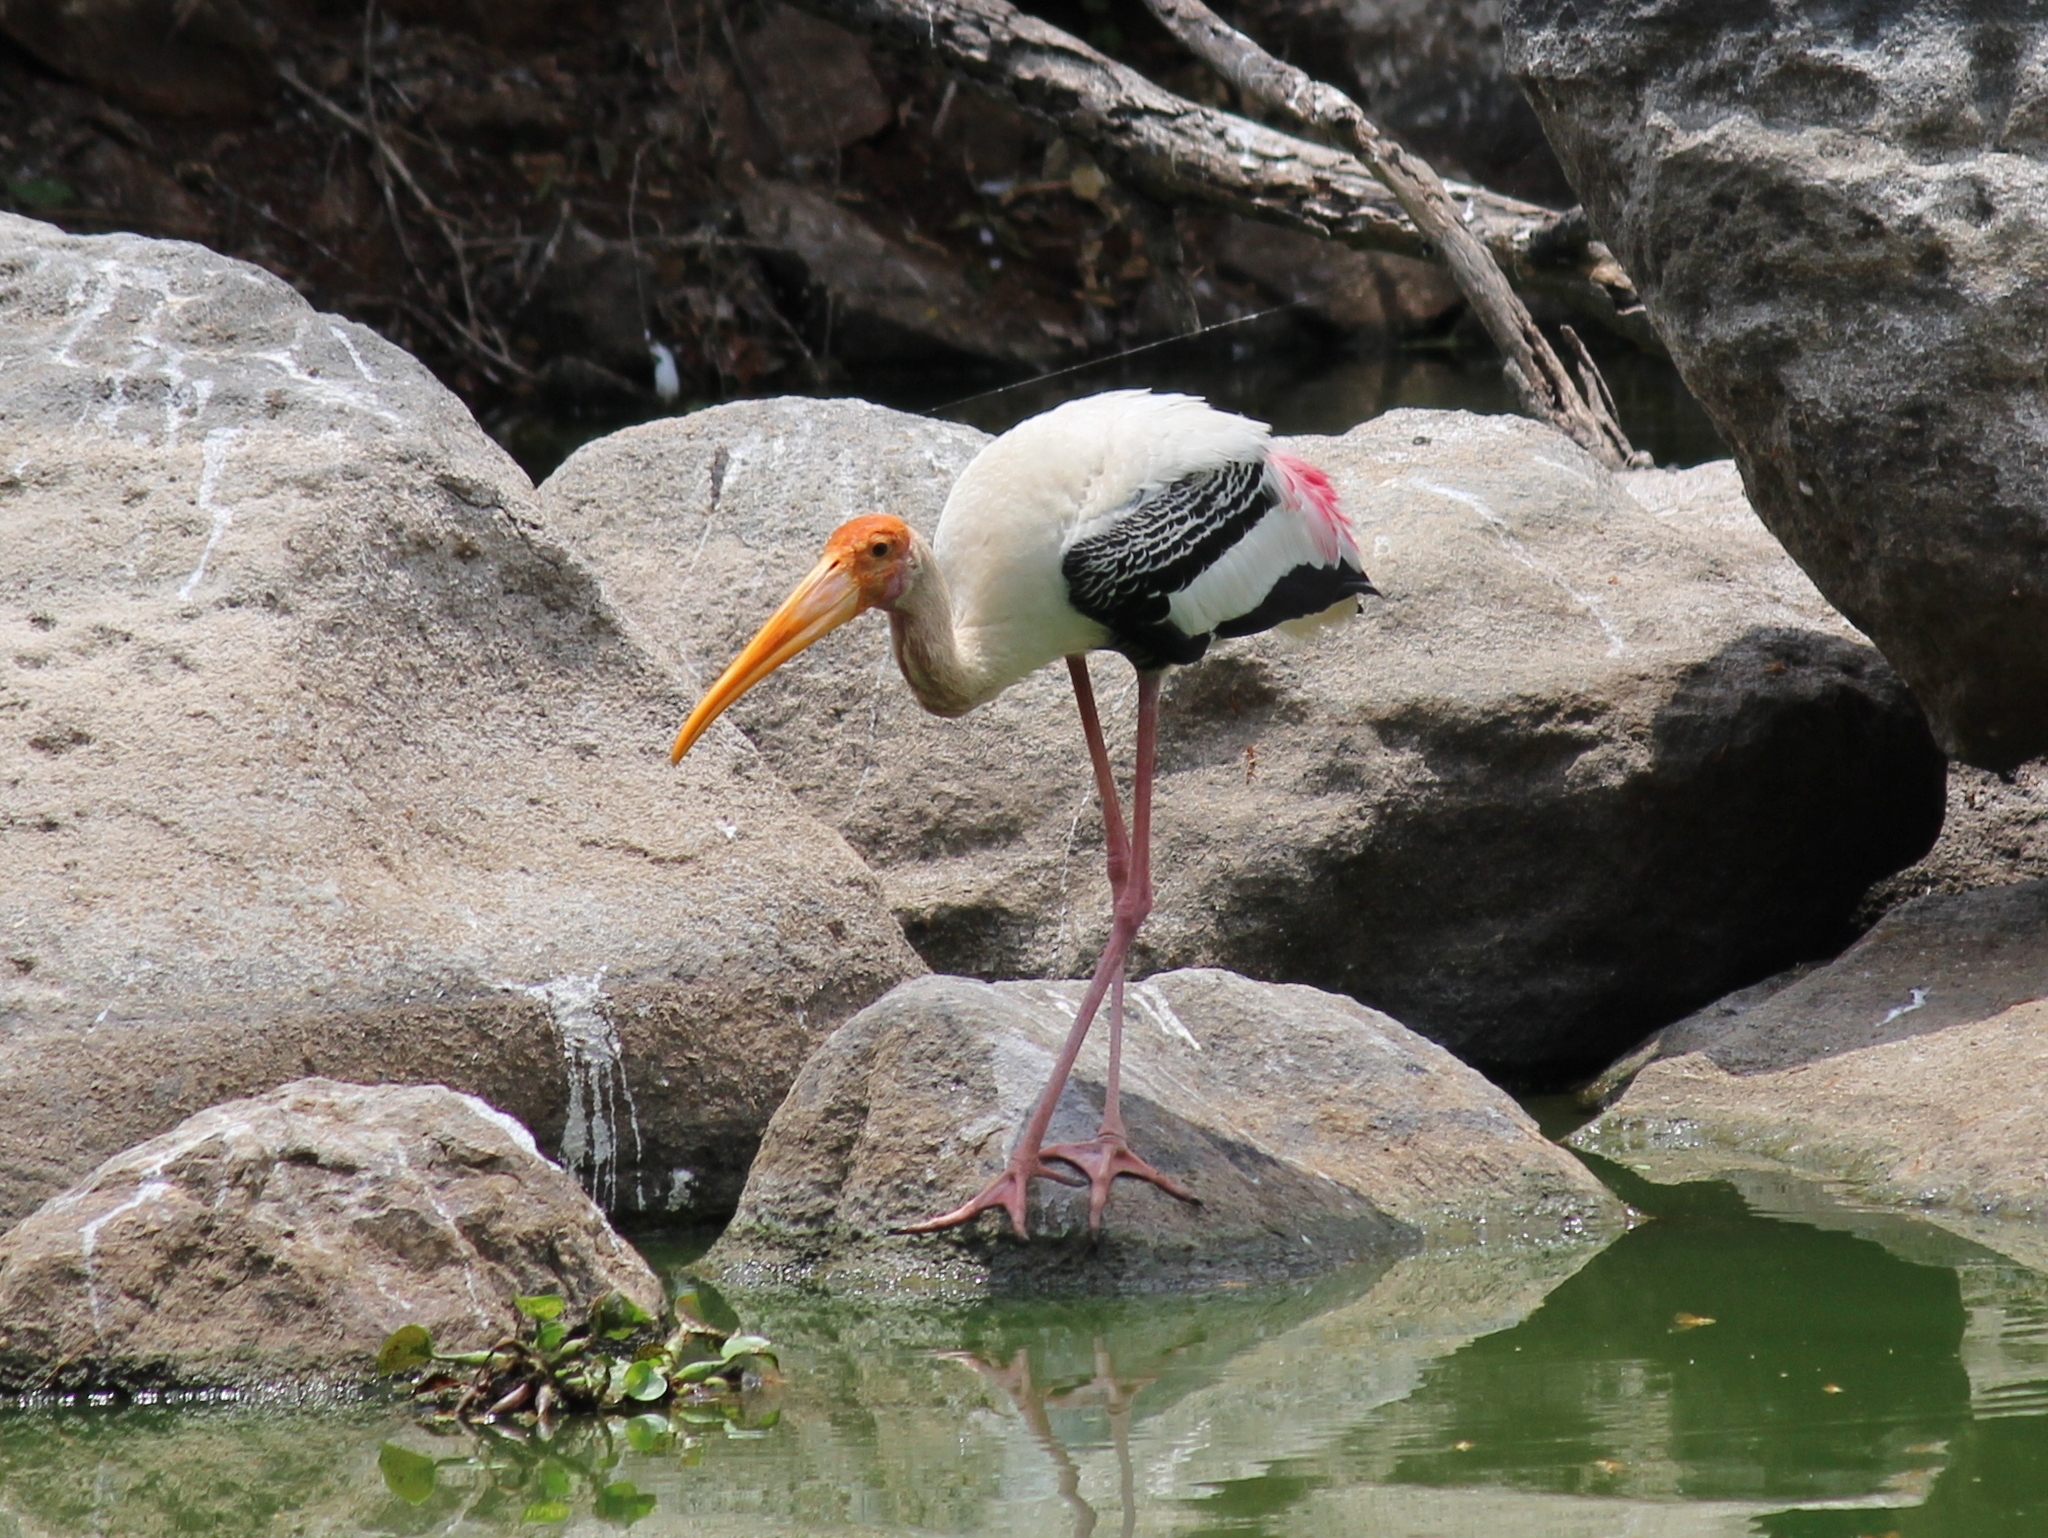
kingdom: Animalia
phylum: Chordata
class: Aves
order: Ciconiiformes
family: Ciconiidae
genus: Mycteria
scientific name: Mycteria leucocephala
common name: Painted stork
